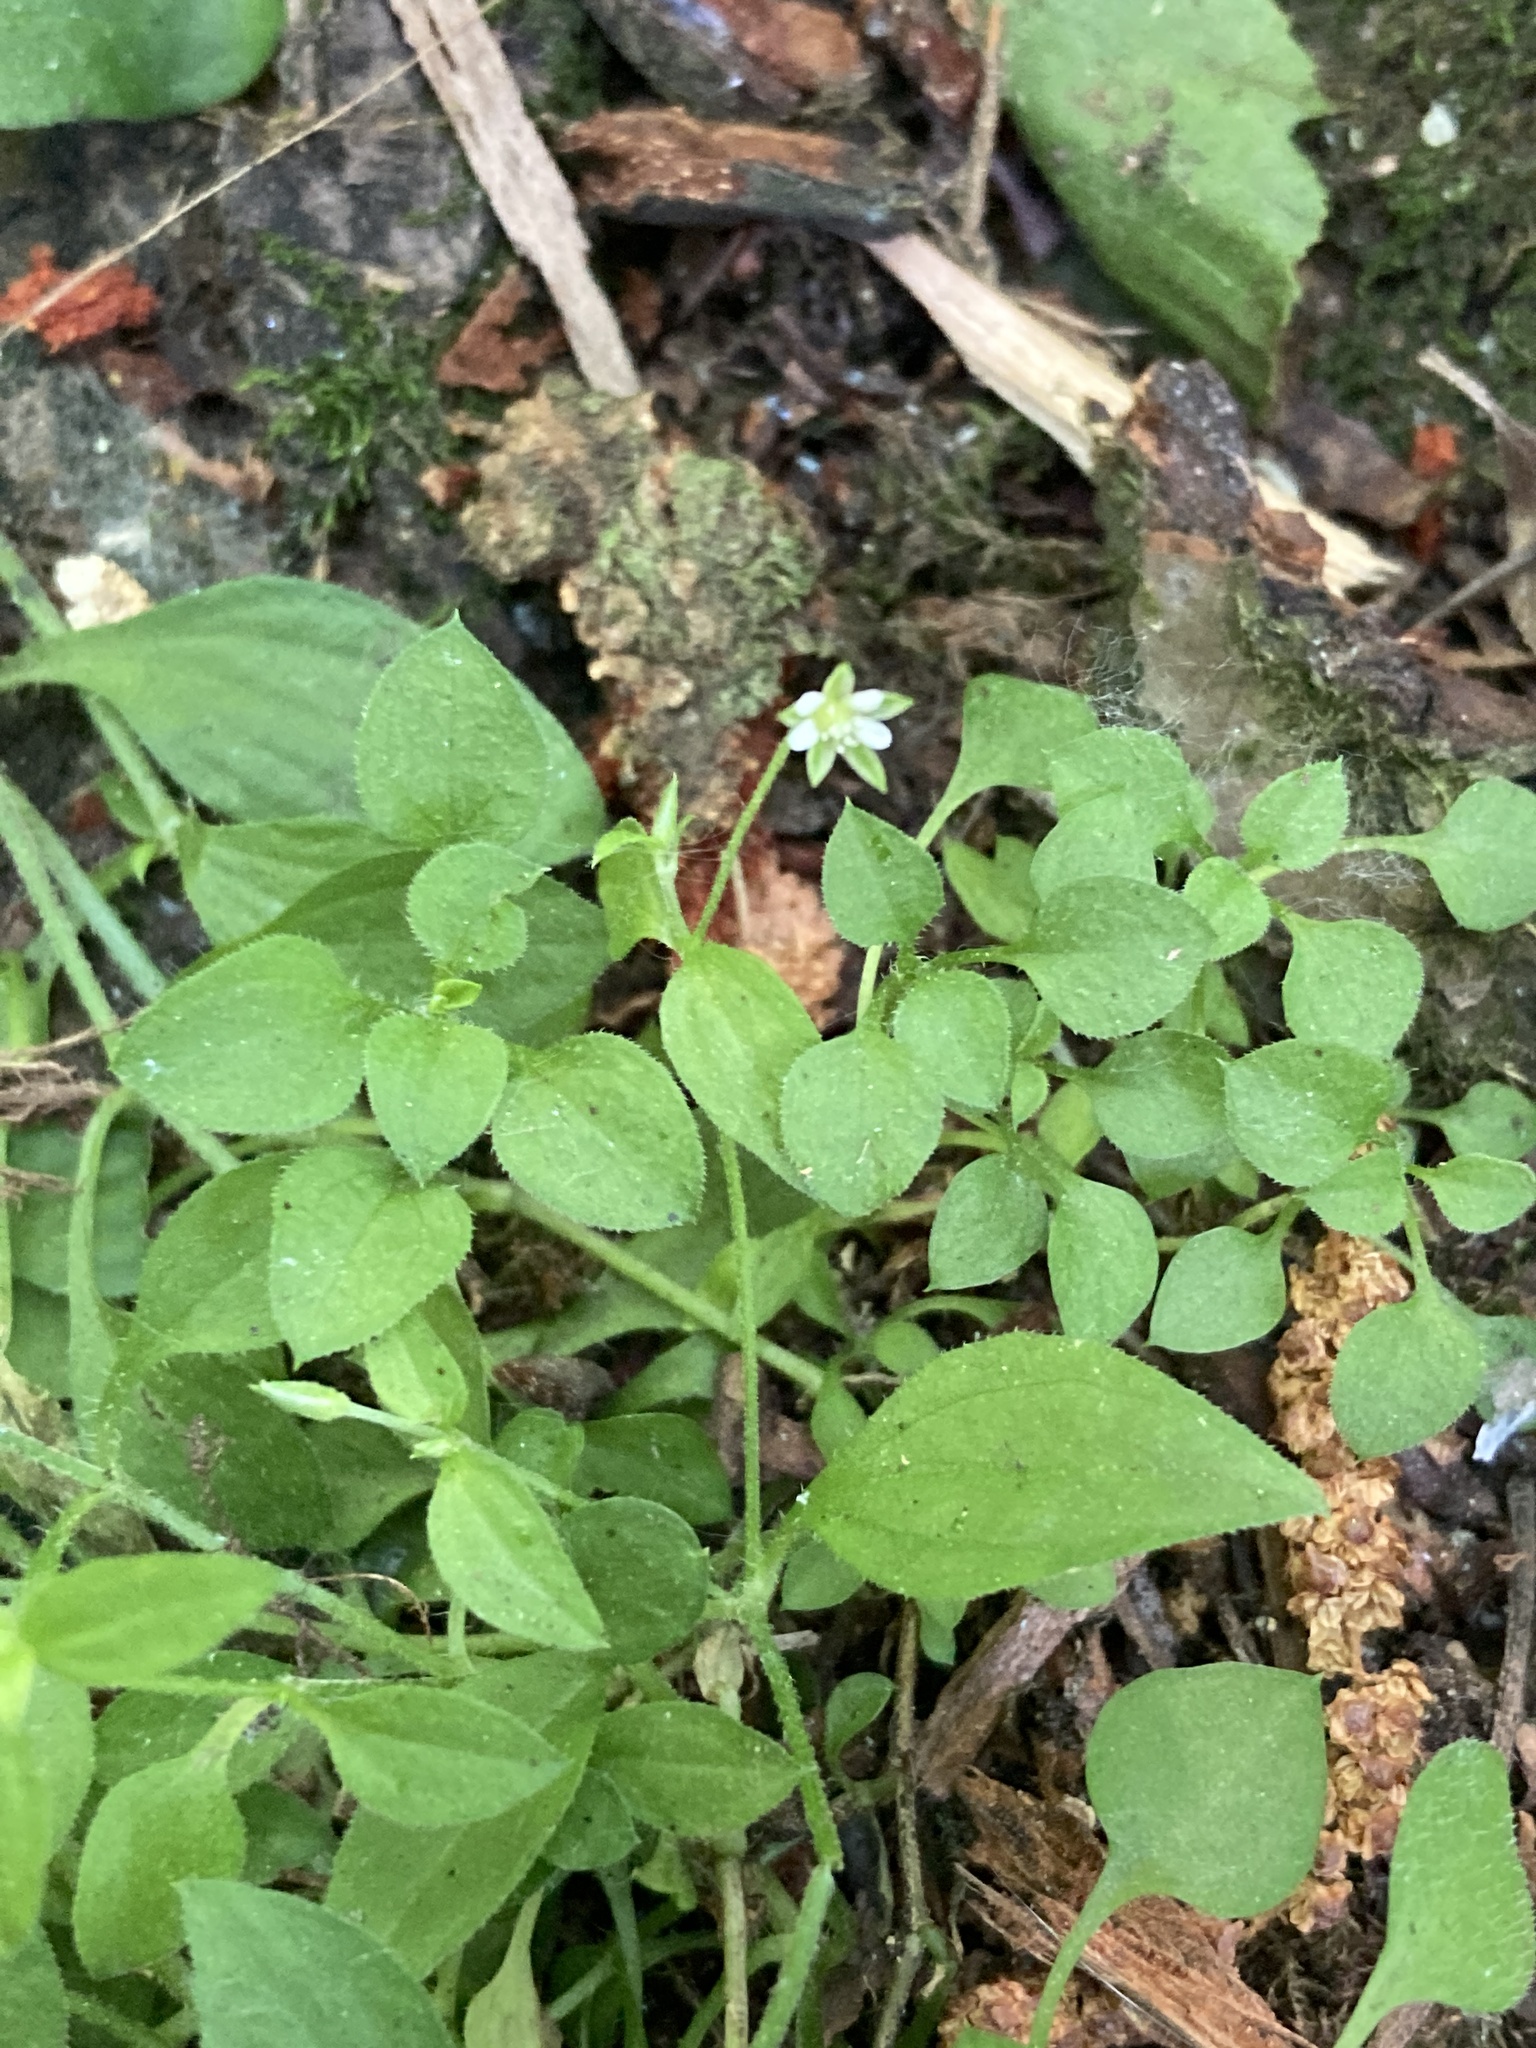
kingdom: Plantae
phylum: Tracheophyta
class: Magnoliopsida
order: Caryophyllales
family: Caryophyllaceae
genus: Moehringia
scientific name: Moehringia trinervia
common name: Three-nerved sandwort
